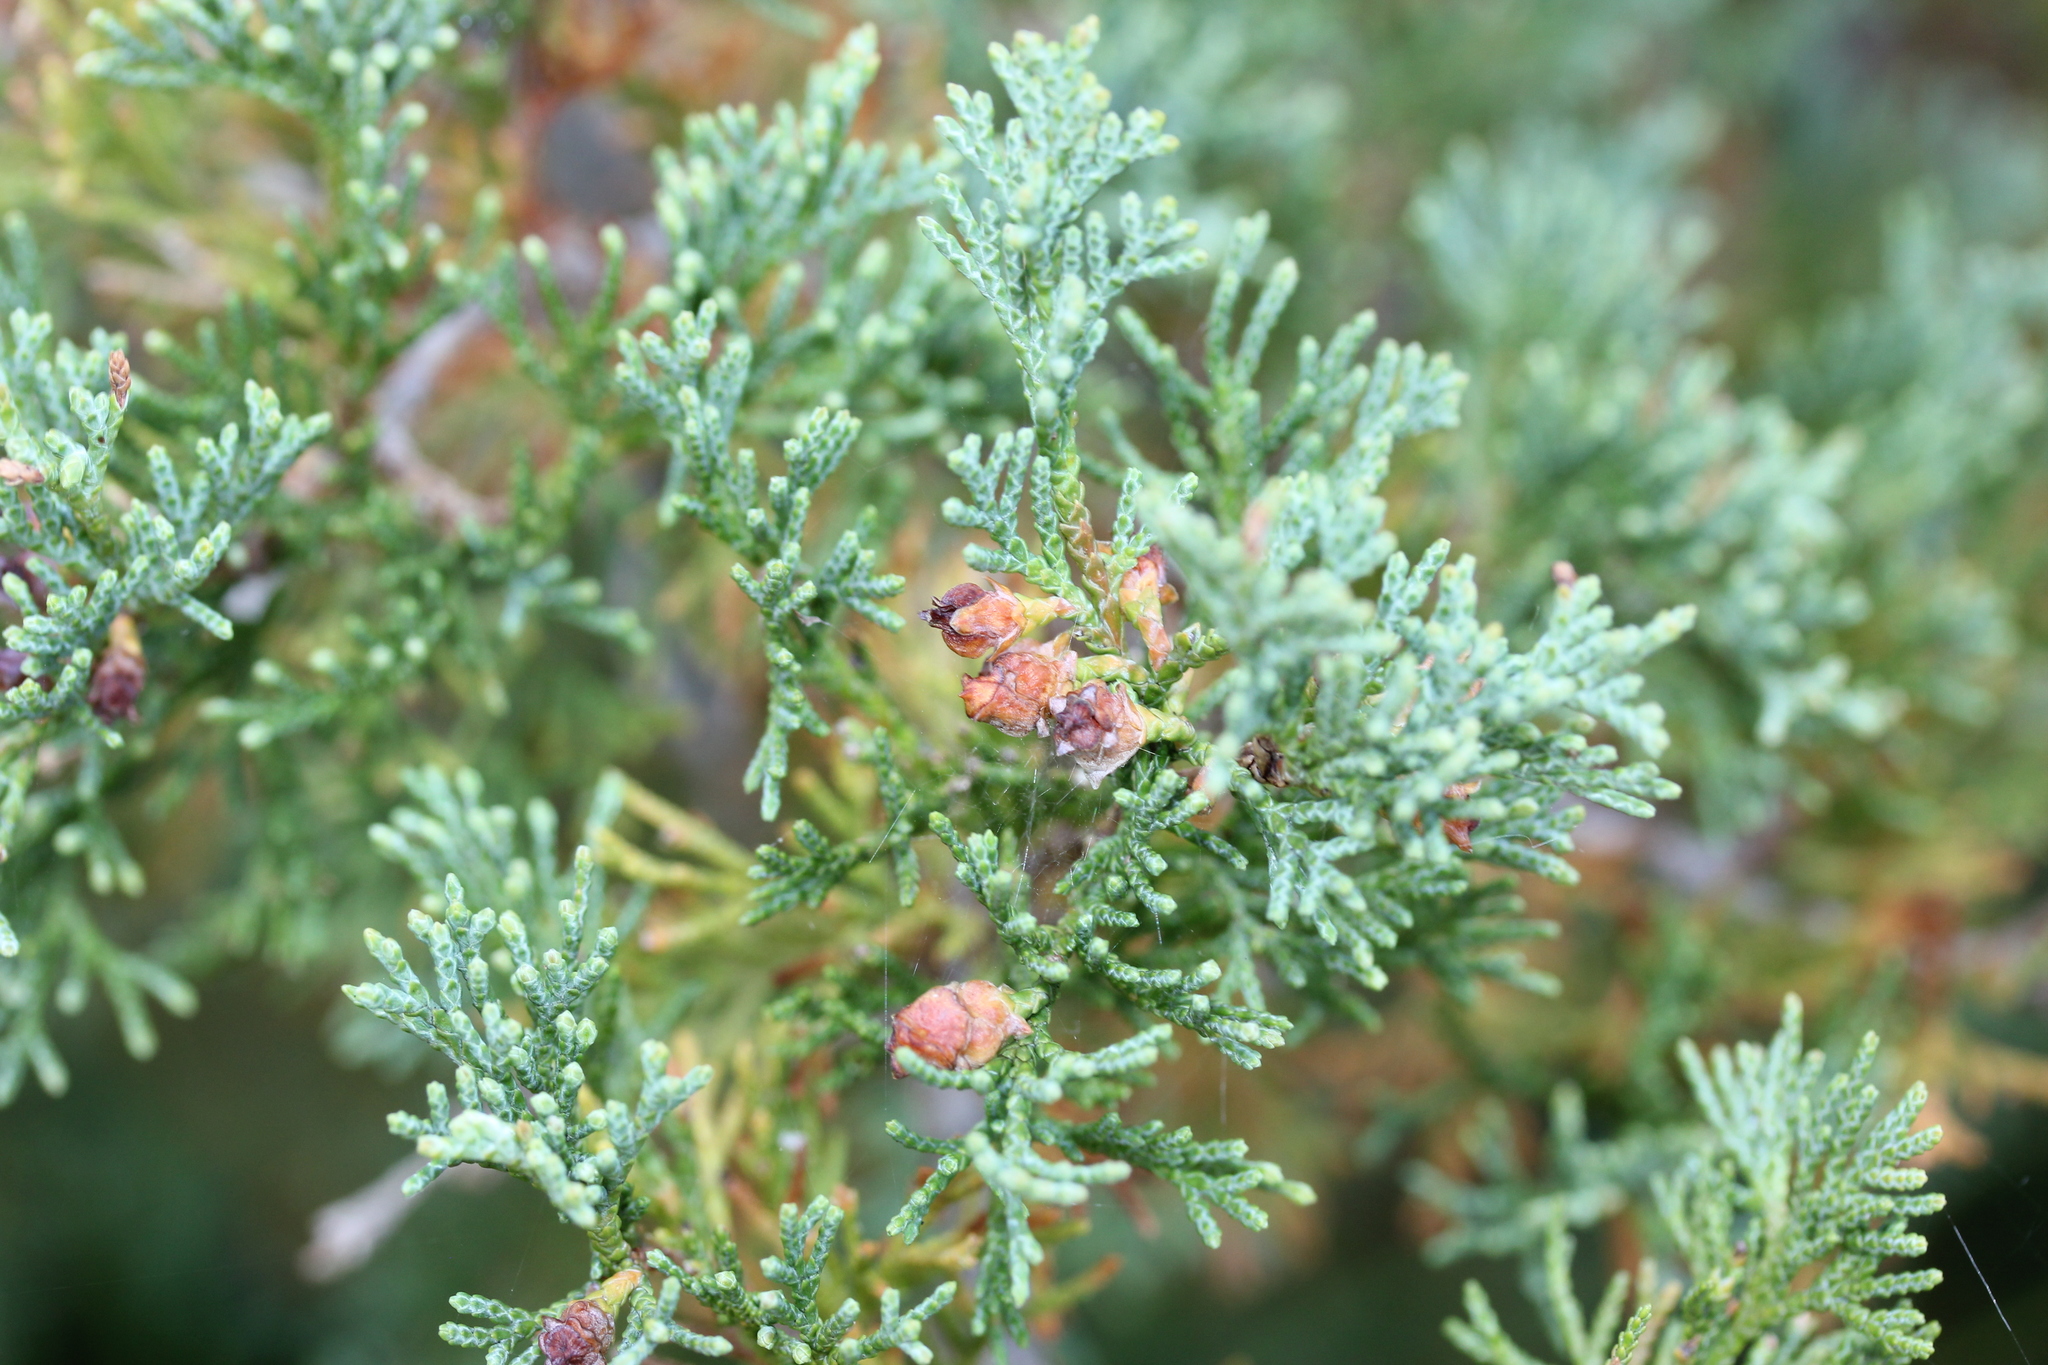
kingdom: Plantae
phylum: Tracheophyta
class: Pinopsida
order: Pinales
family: Cupressaceae
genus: Chamaecyparis
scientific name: Chamaecyparis thyoides
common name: Atlantic white cedar
